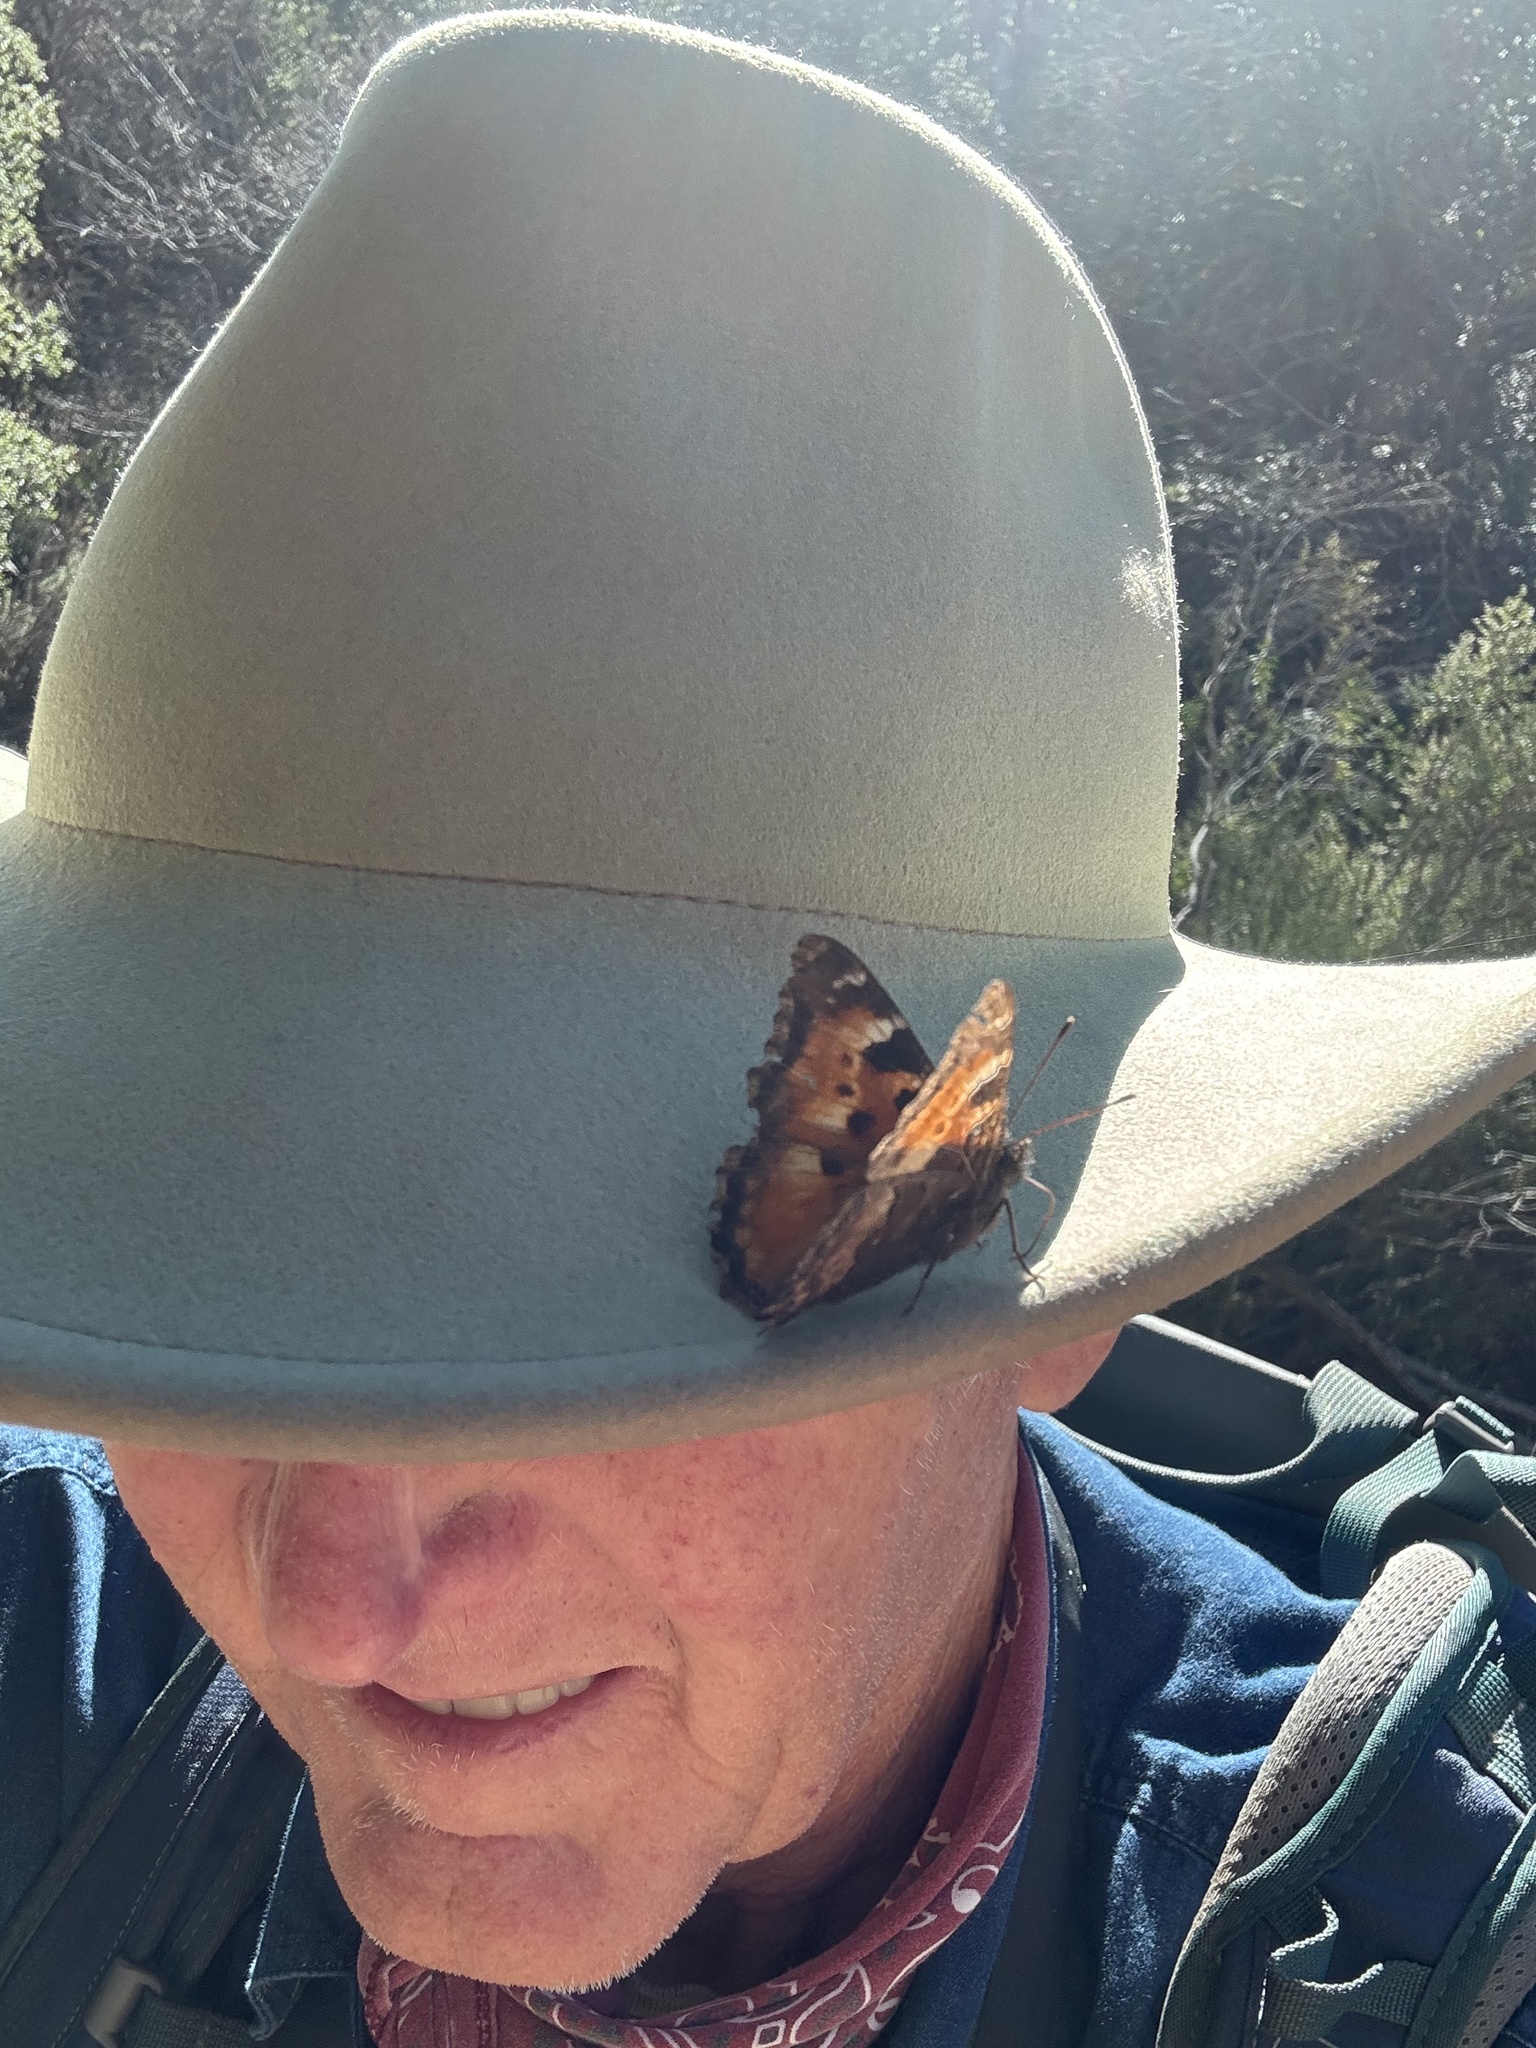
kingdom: Animalia
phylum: Arthropoda
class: Insecta
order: Lepidoptera
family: Nymphalidae
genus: Nymphalis
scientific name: Nymphalis californica
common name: California tortoiseshell
